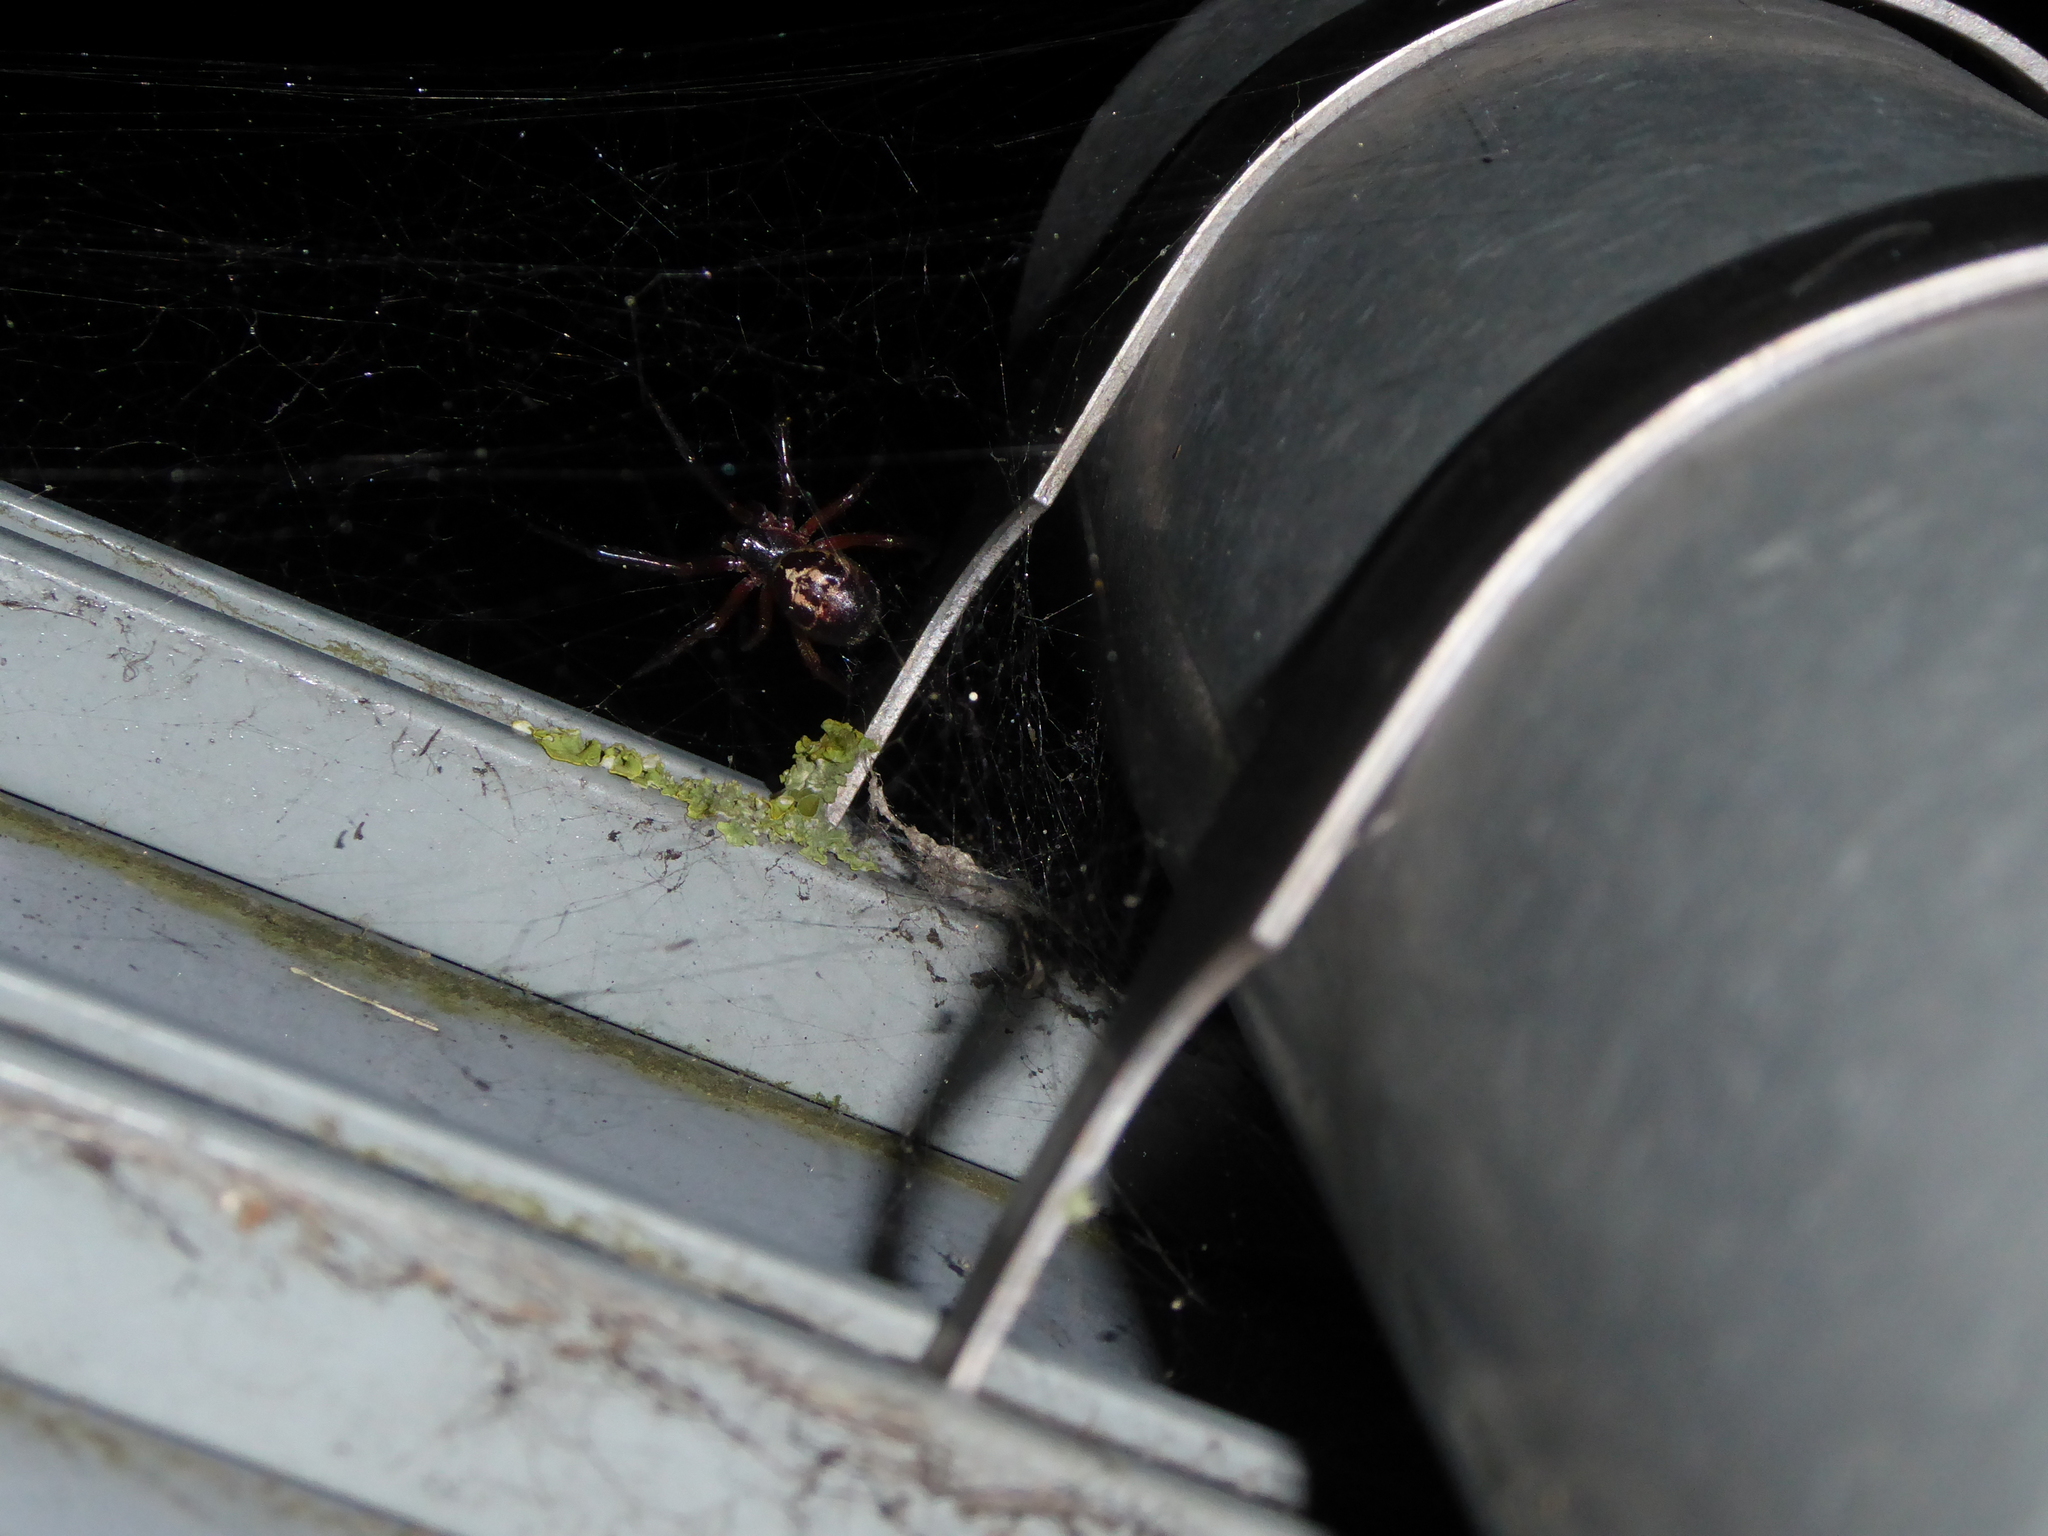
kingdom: Animalia
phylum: Arthropoda
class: Arachnida
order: Araneae
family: Theridiidae
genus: Steatoda
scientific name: Steatoda nobilis
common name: Cobweb weaver
